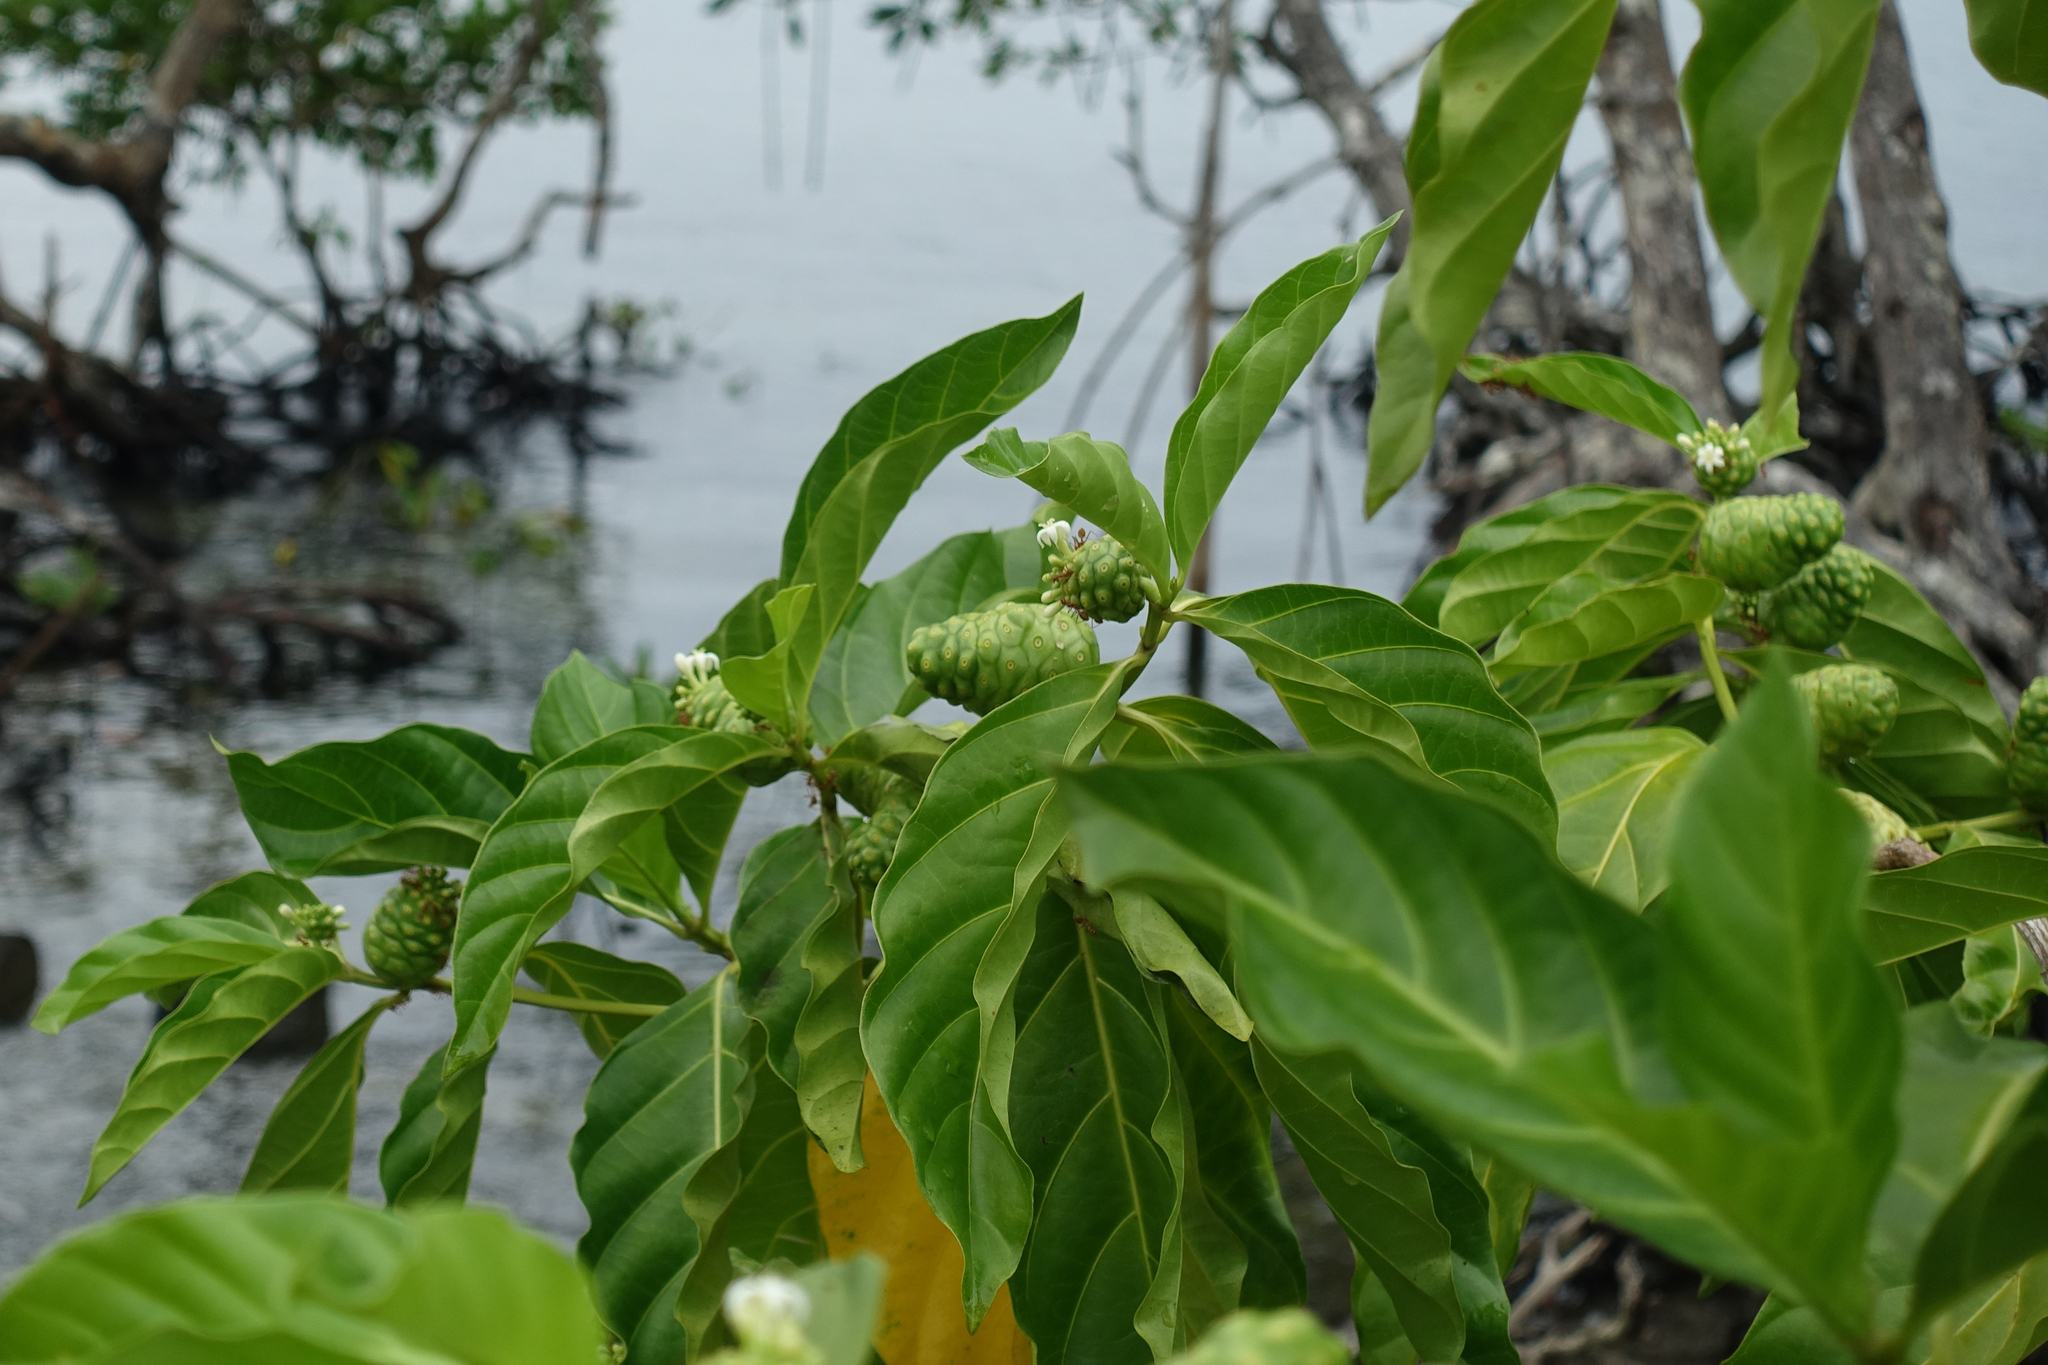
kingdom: Plantae
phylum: Tracheophyta
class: Magnoliopsida
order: Gentianales
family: Rubiaceae
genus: Morinda
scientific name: Morinda citrifolia
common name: Indian-mulberry
